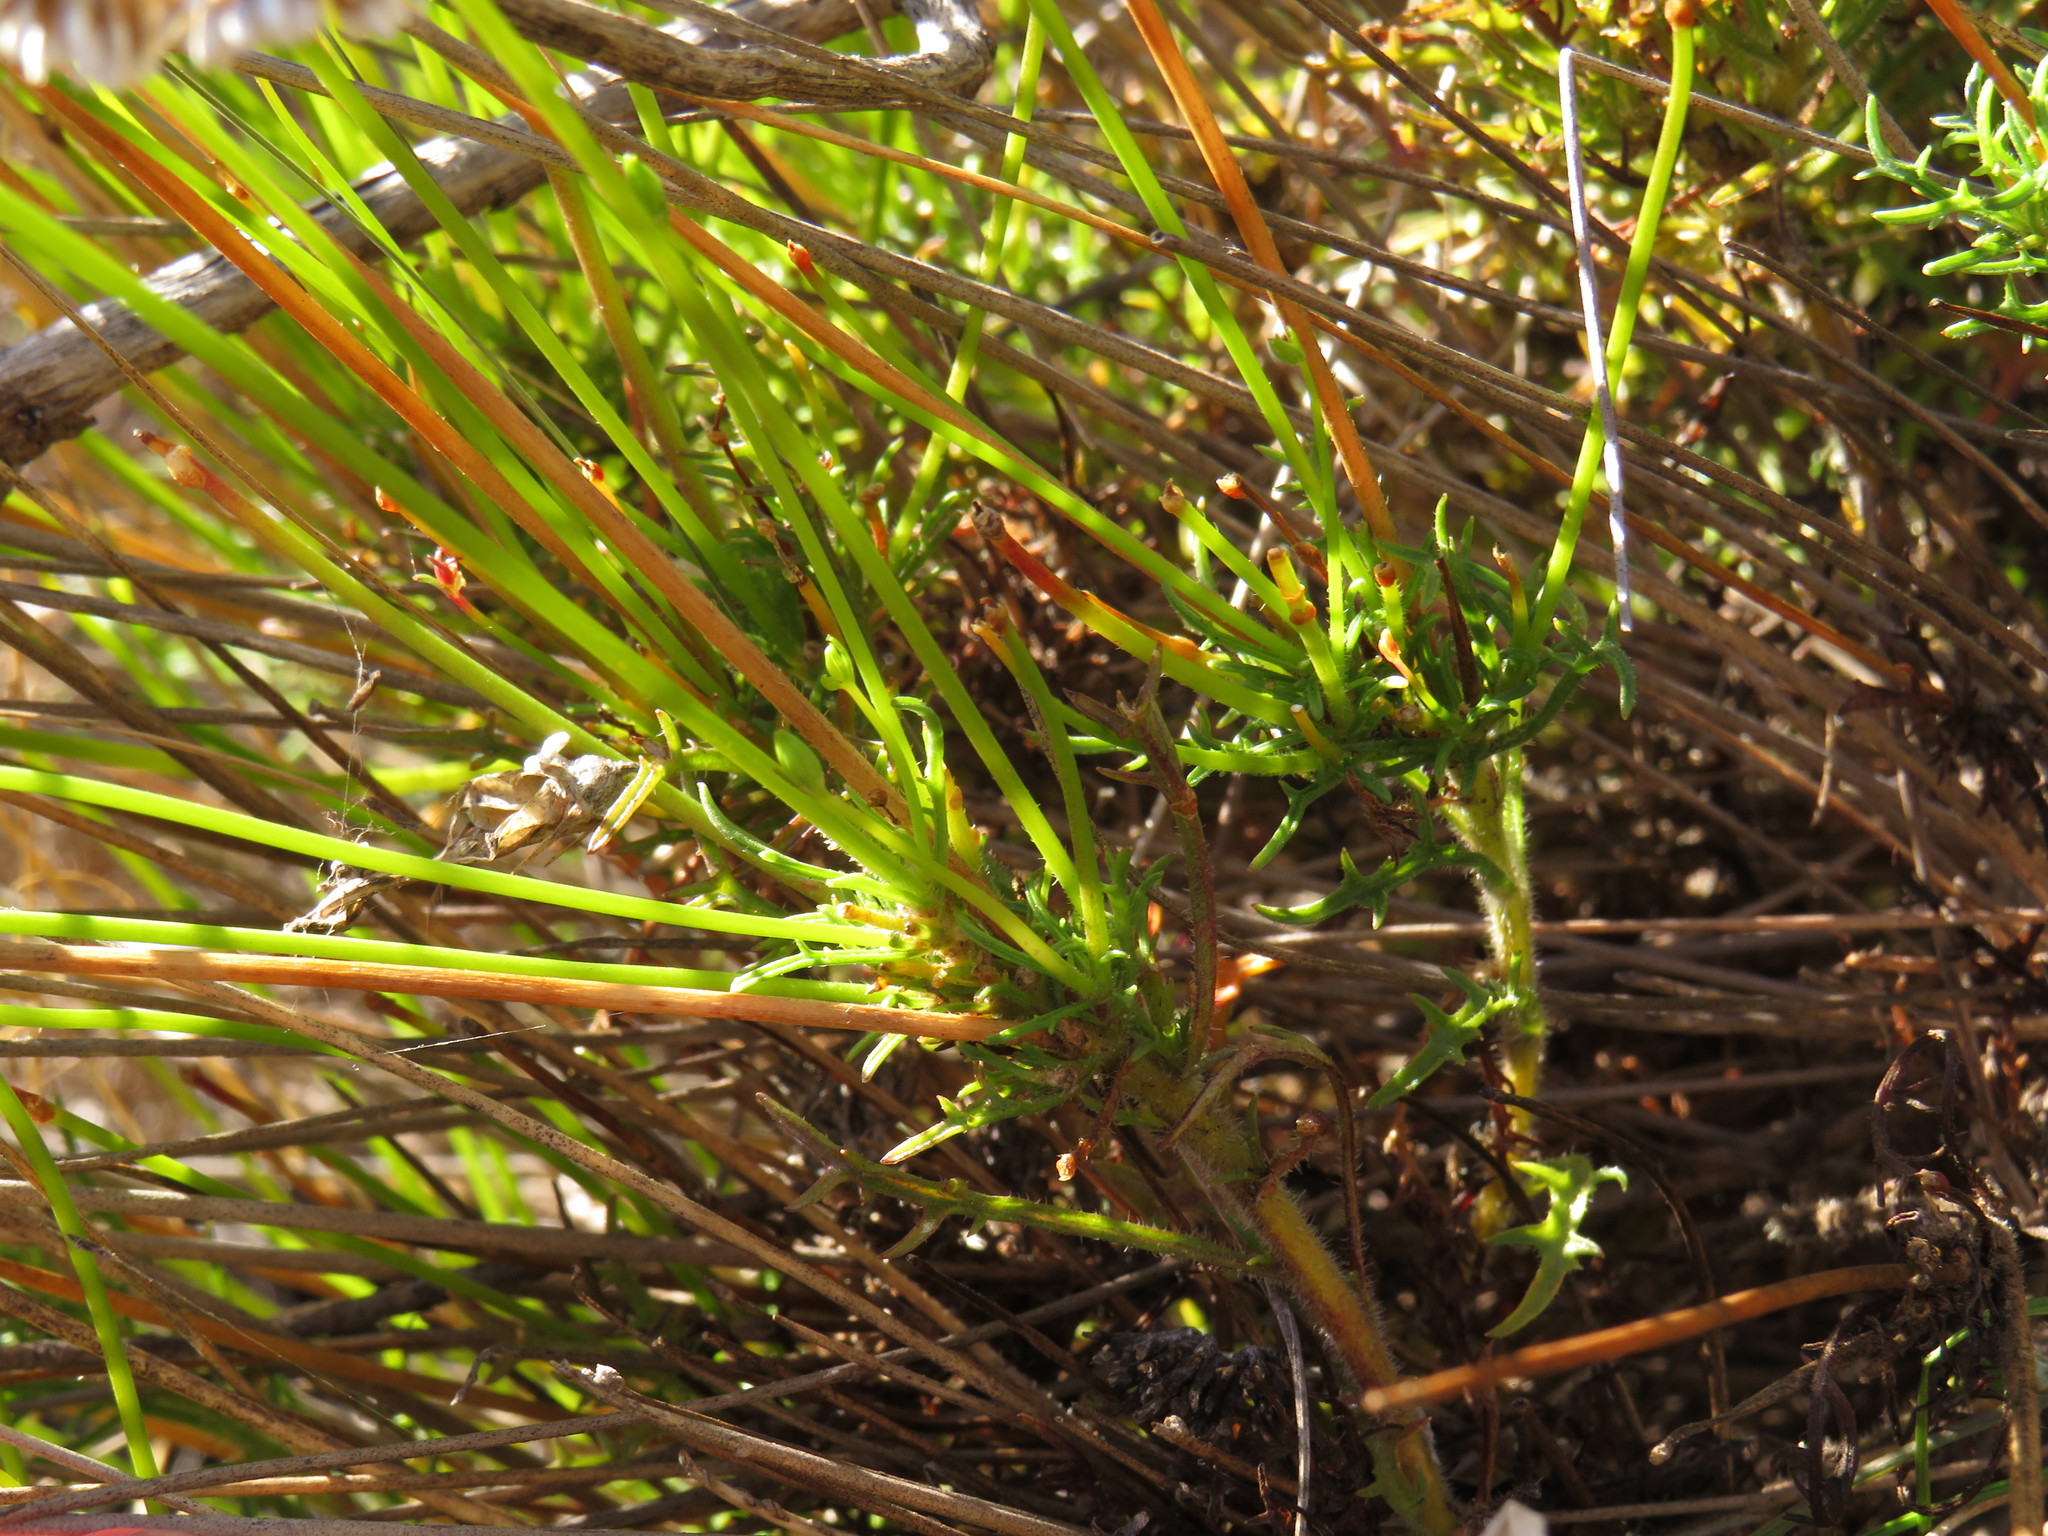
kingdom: Plantae
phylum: Tracheophyta
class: Magnoliopsida
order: Asterales
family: Campanulaceae
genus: Lobelia
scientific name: Lobelia coronopifolia
